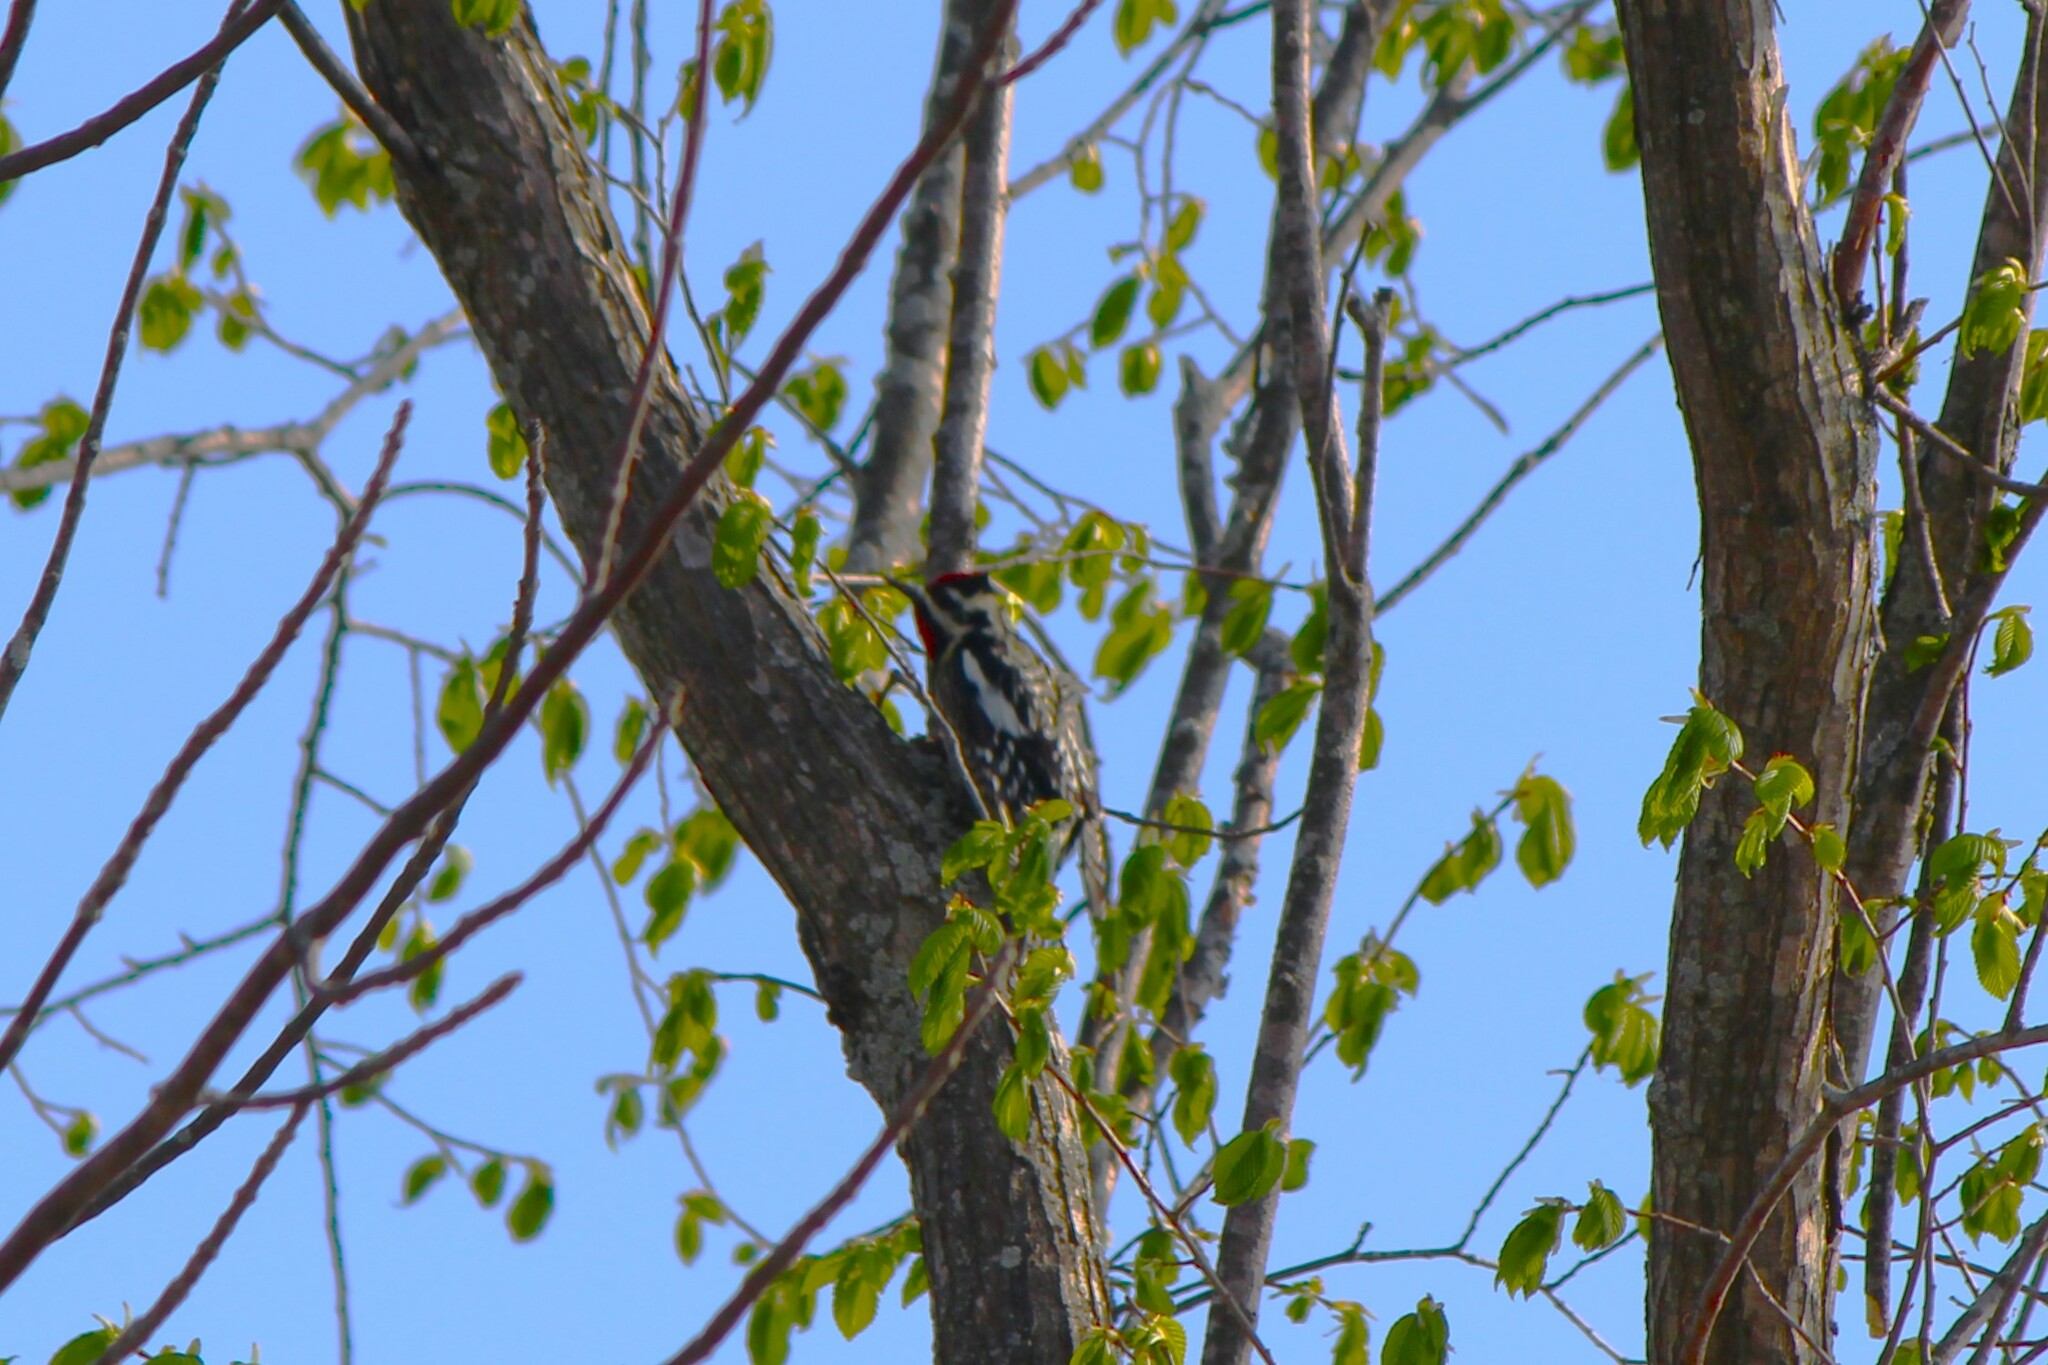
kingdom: Animalia
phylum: Chordata
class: Aves
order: Piciformes
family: Picidae
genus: Sphyrapicus
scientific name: Sphyrapicus varius
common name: Yellow-bellied sapsucker
